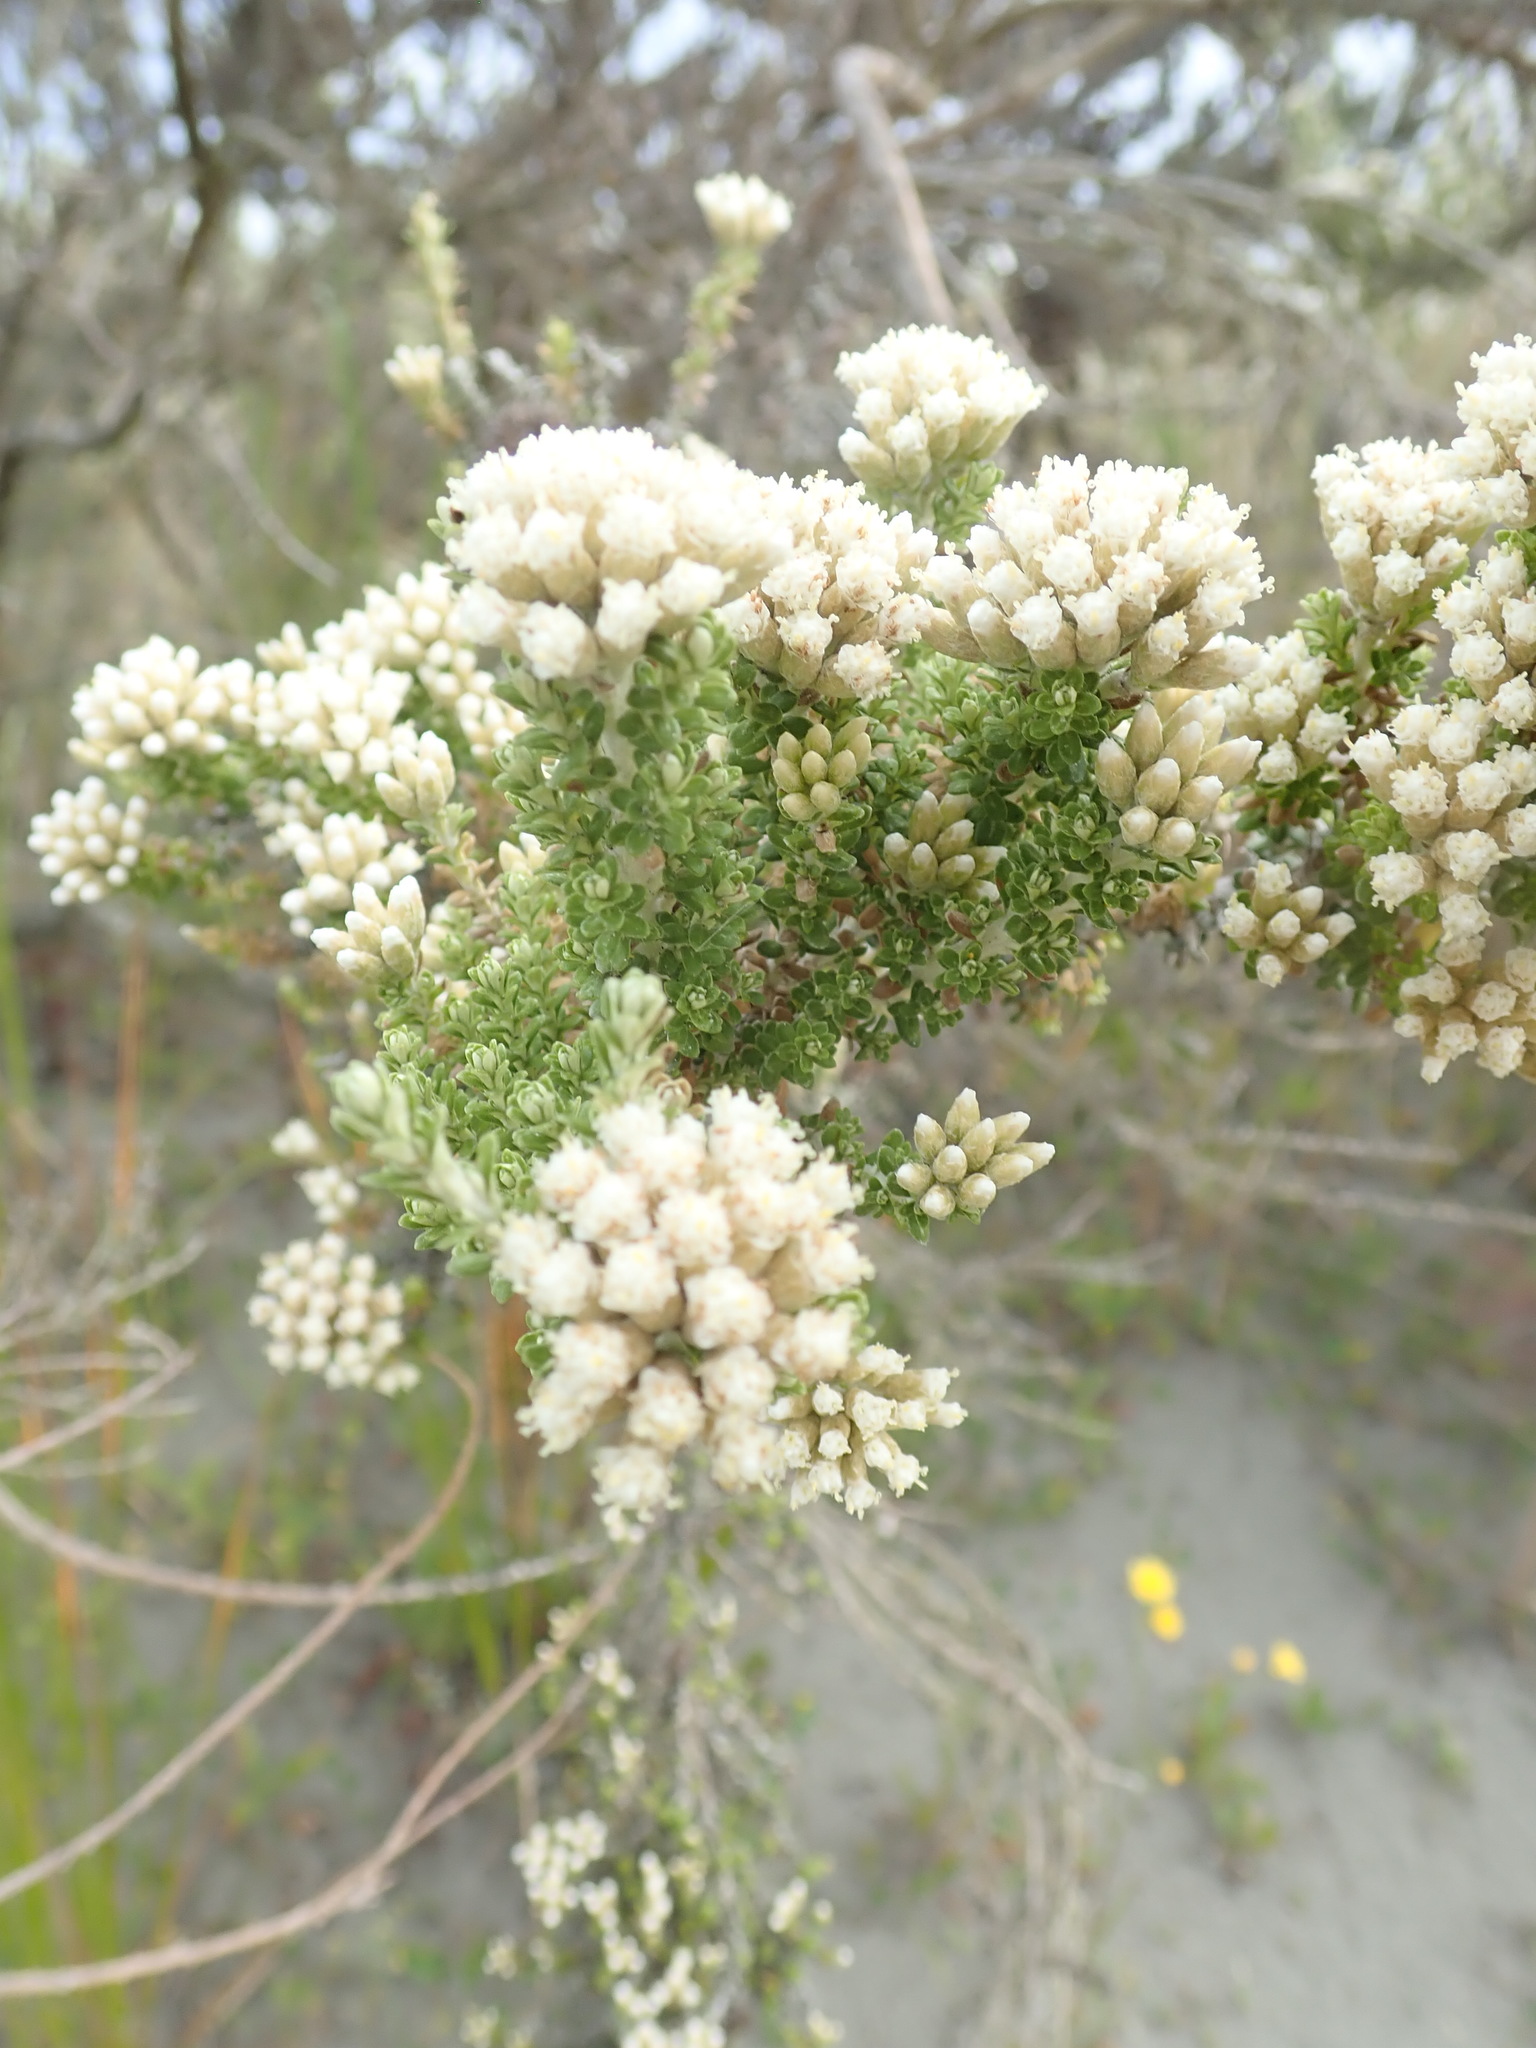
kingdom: Plantae
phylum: Tracheophyta
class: Magnoliopsida
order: Asterales
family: Asteraceae
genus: Ozothamnus
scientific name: Ozothamnus leptophyllus
